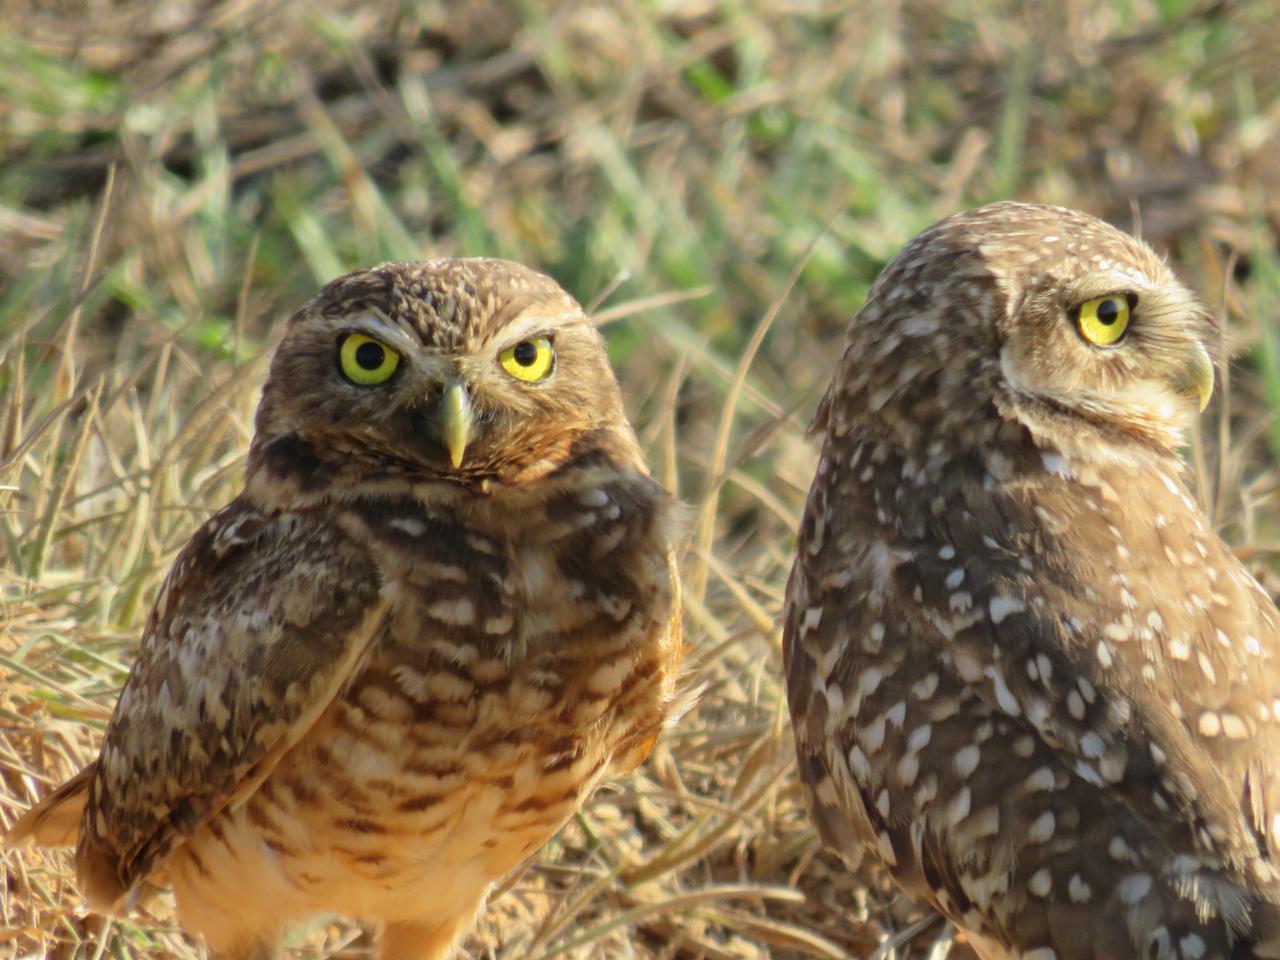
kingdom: Animalia
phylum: Chordata
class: Aves
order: Strigiformes
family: Strigidae
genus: Athene
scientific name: Athene cunicularia
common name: Burrowing owl
